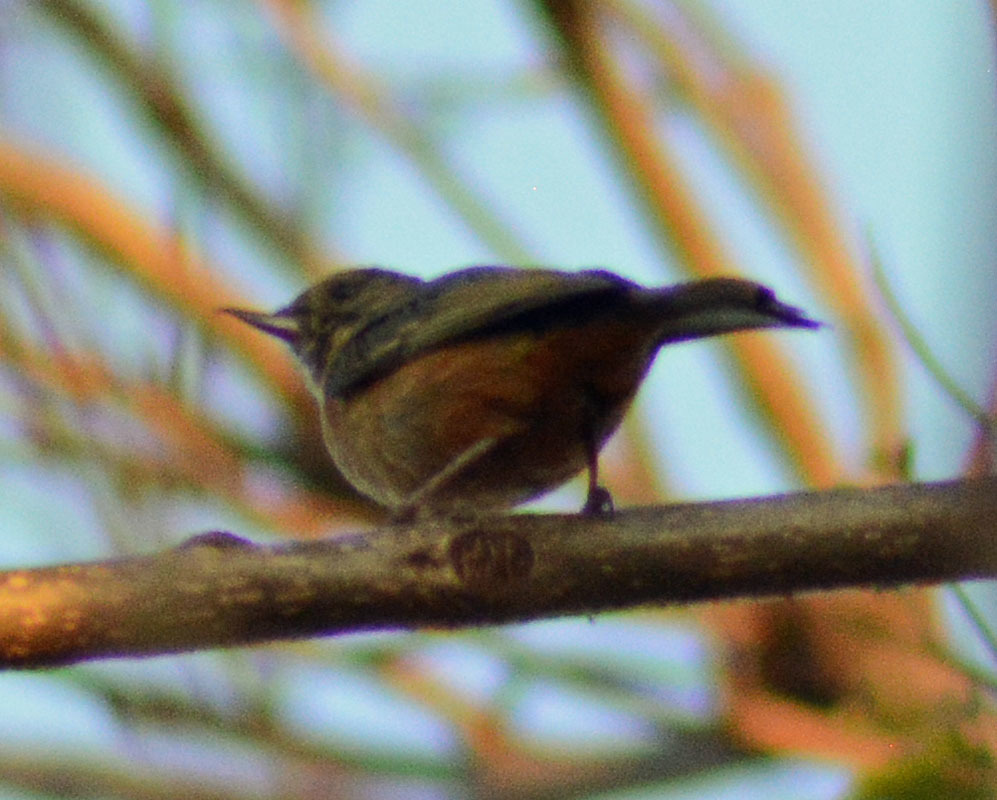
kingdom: Animalia
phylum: Chordata
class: Aves
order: Passeriformes
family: Thraupidae
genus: Diglossa
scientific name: Diglossa baritula
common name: Cinnamon-bellied flowerpiercer
